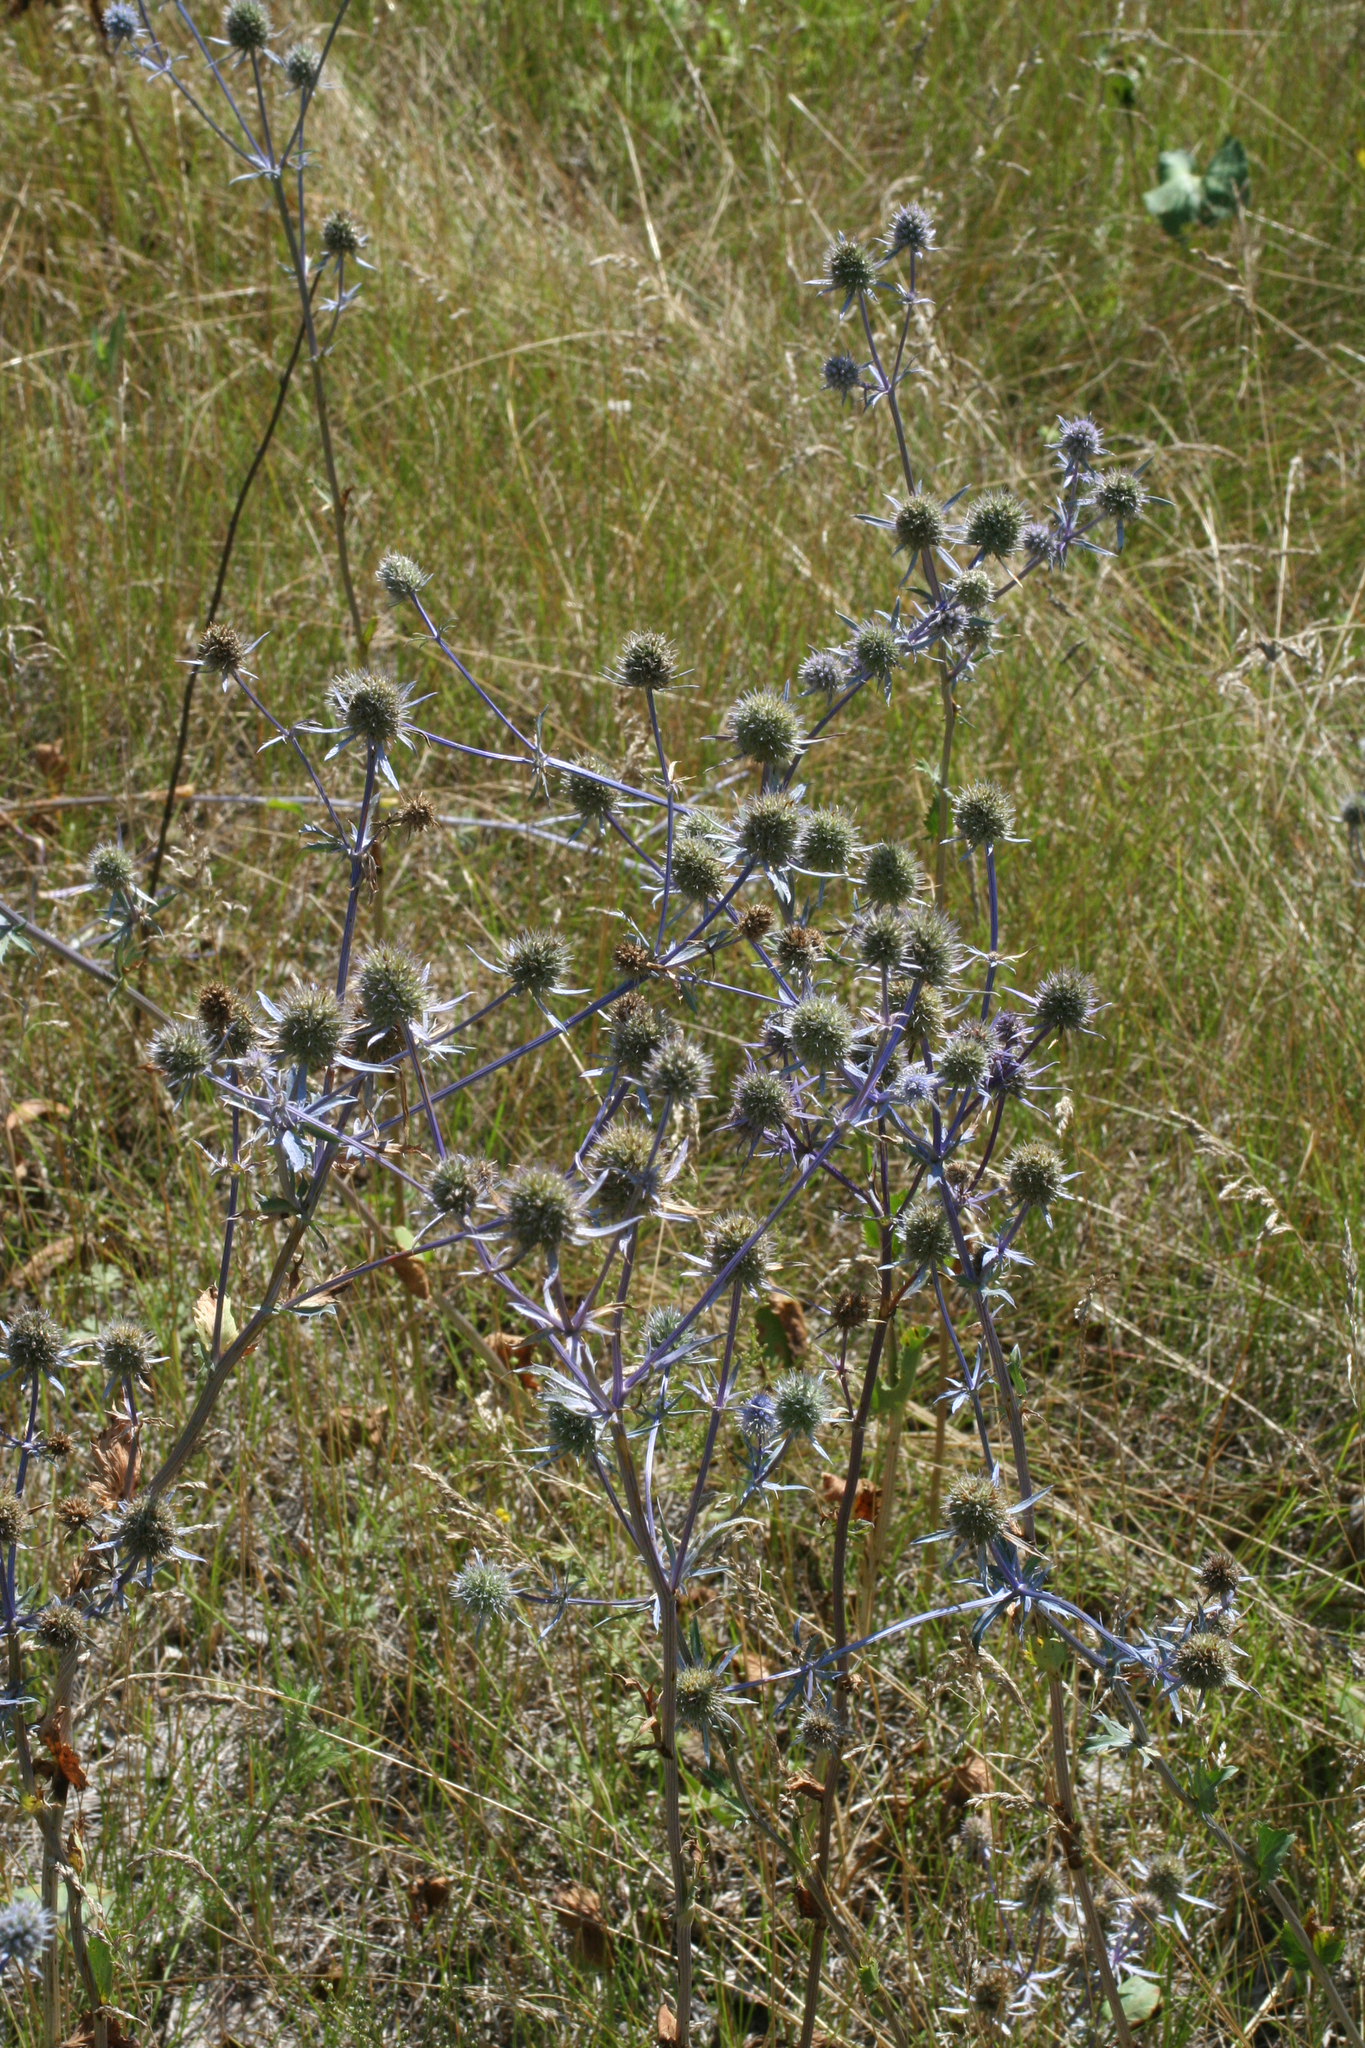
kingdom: Plantae
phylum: Tracheophyta
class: Magnoliopsida
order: Apiales
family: Apiaceae
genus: Eryngium
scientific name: Eryngium planum
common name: Blue eryngo
